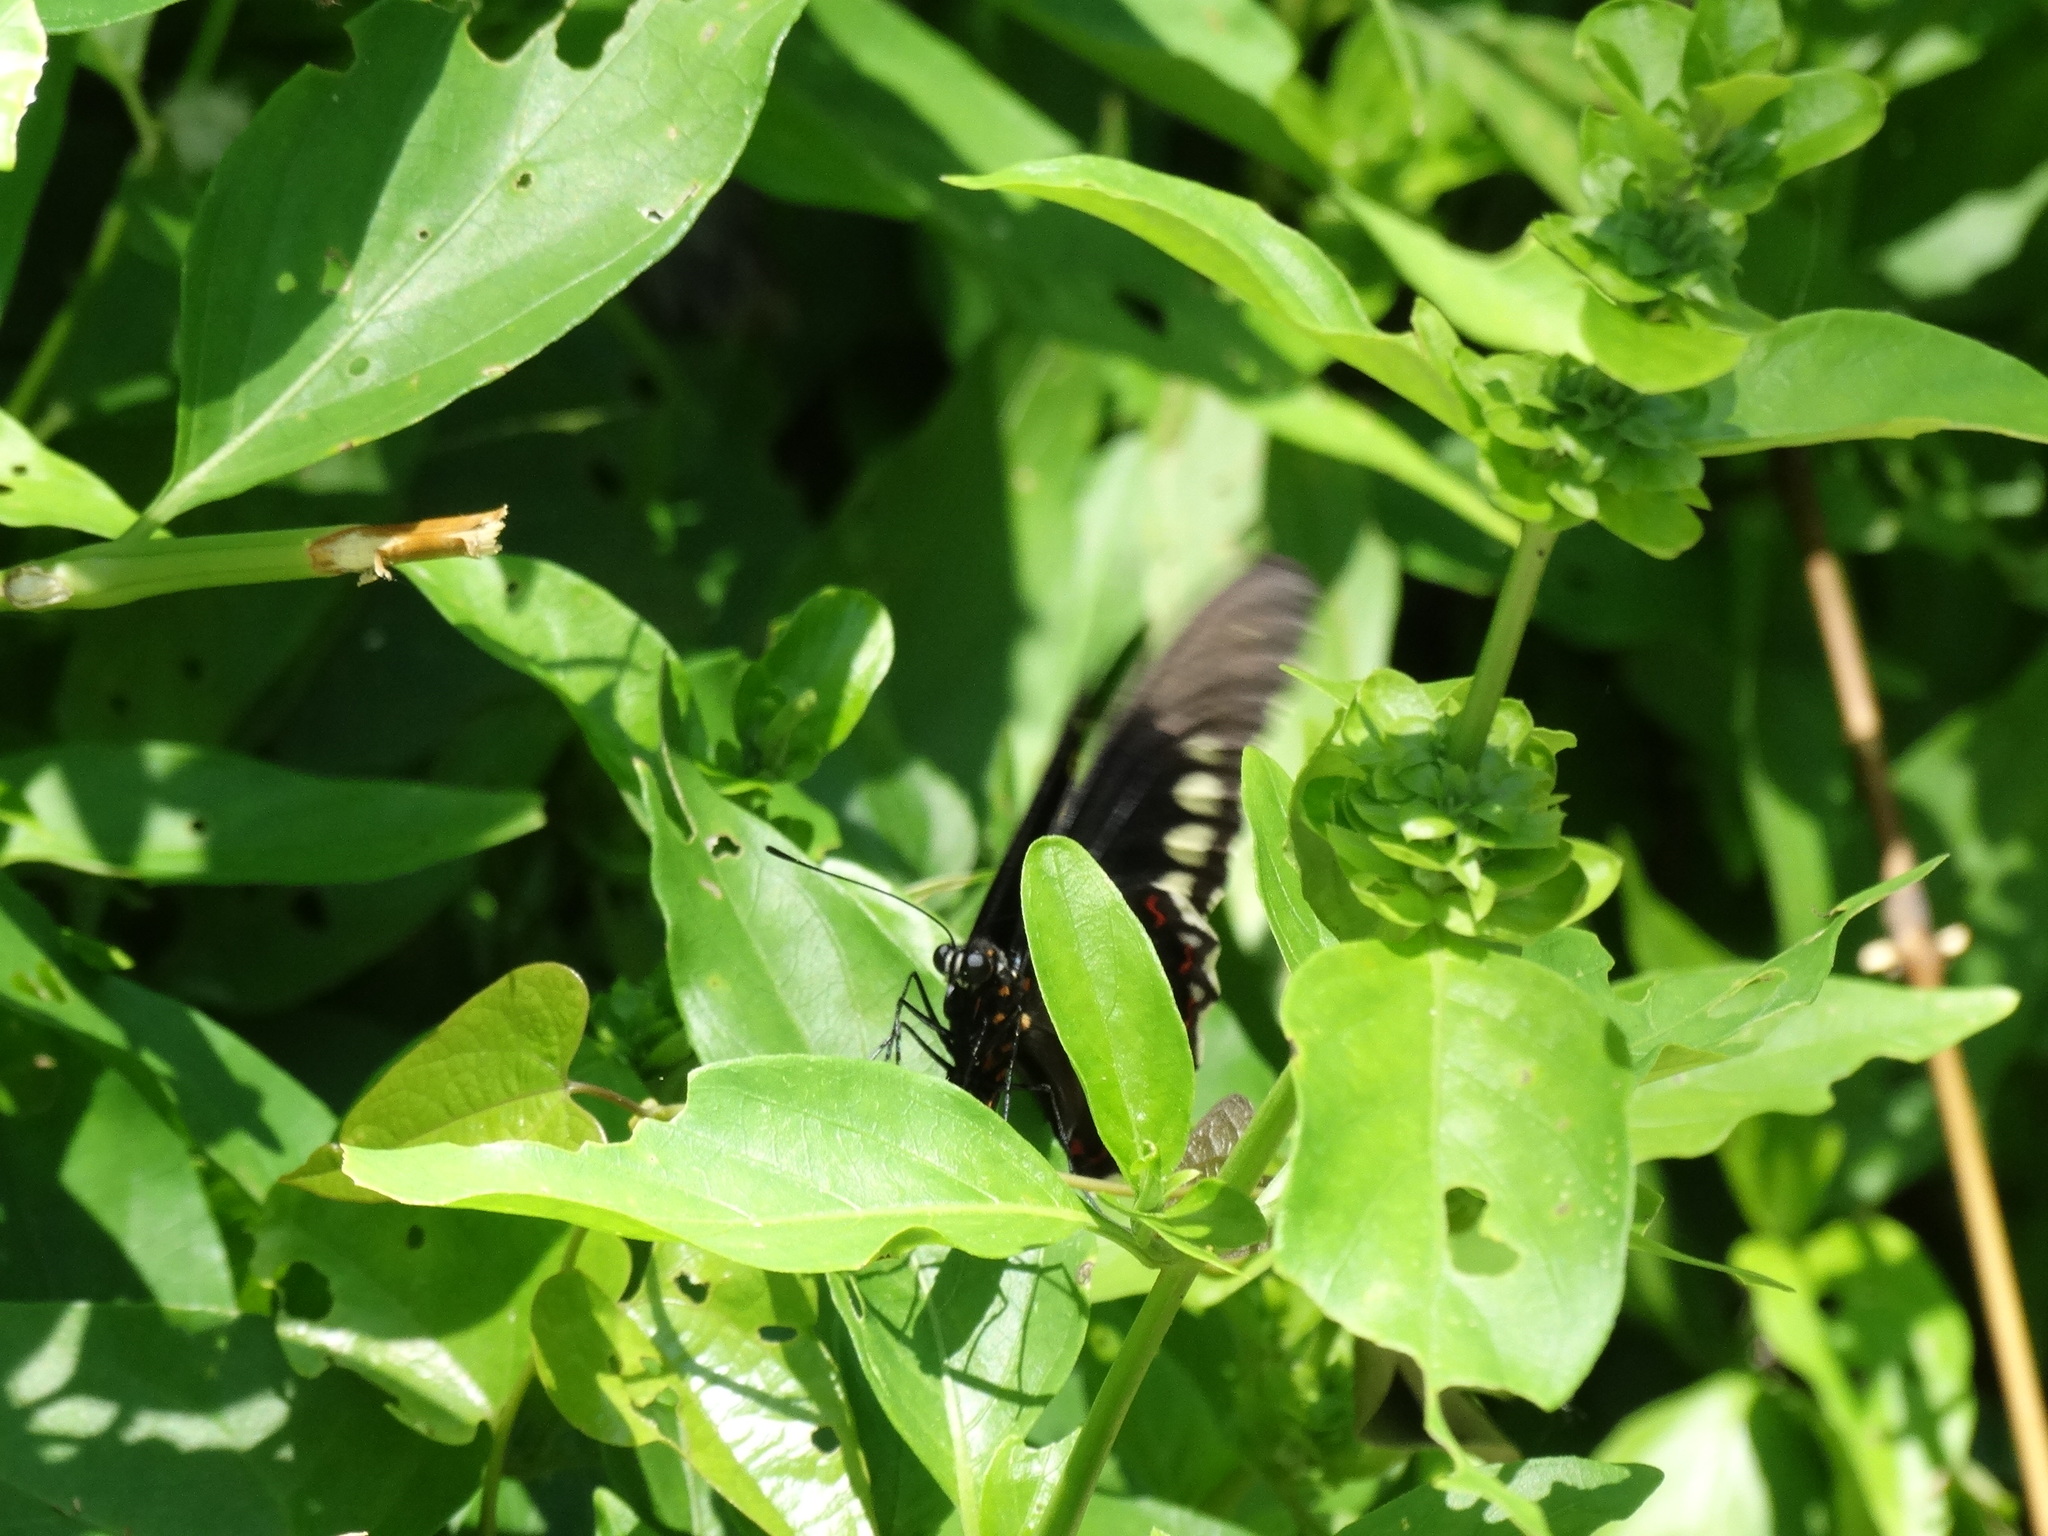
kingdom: Animalia
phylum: Arthropoda
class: Insecta
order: Lepidoptera
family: Papilionidae
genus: Battus
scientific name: Battus polydamas
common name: Polydamas swallowtail
